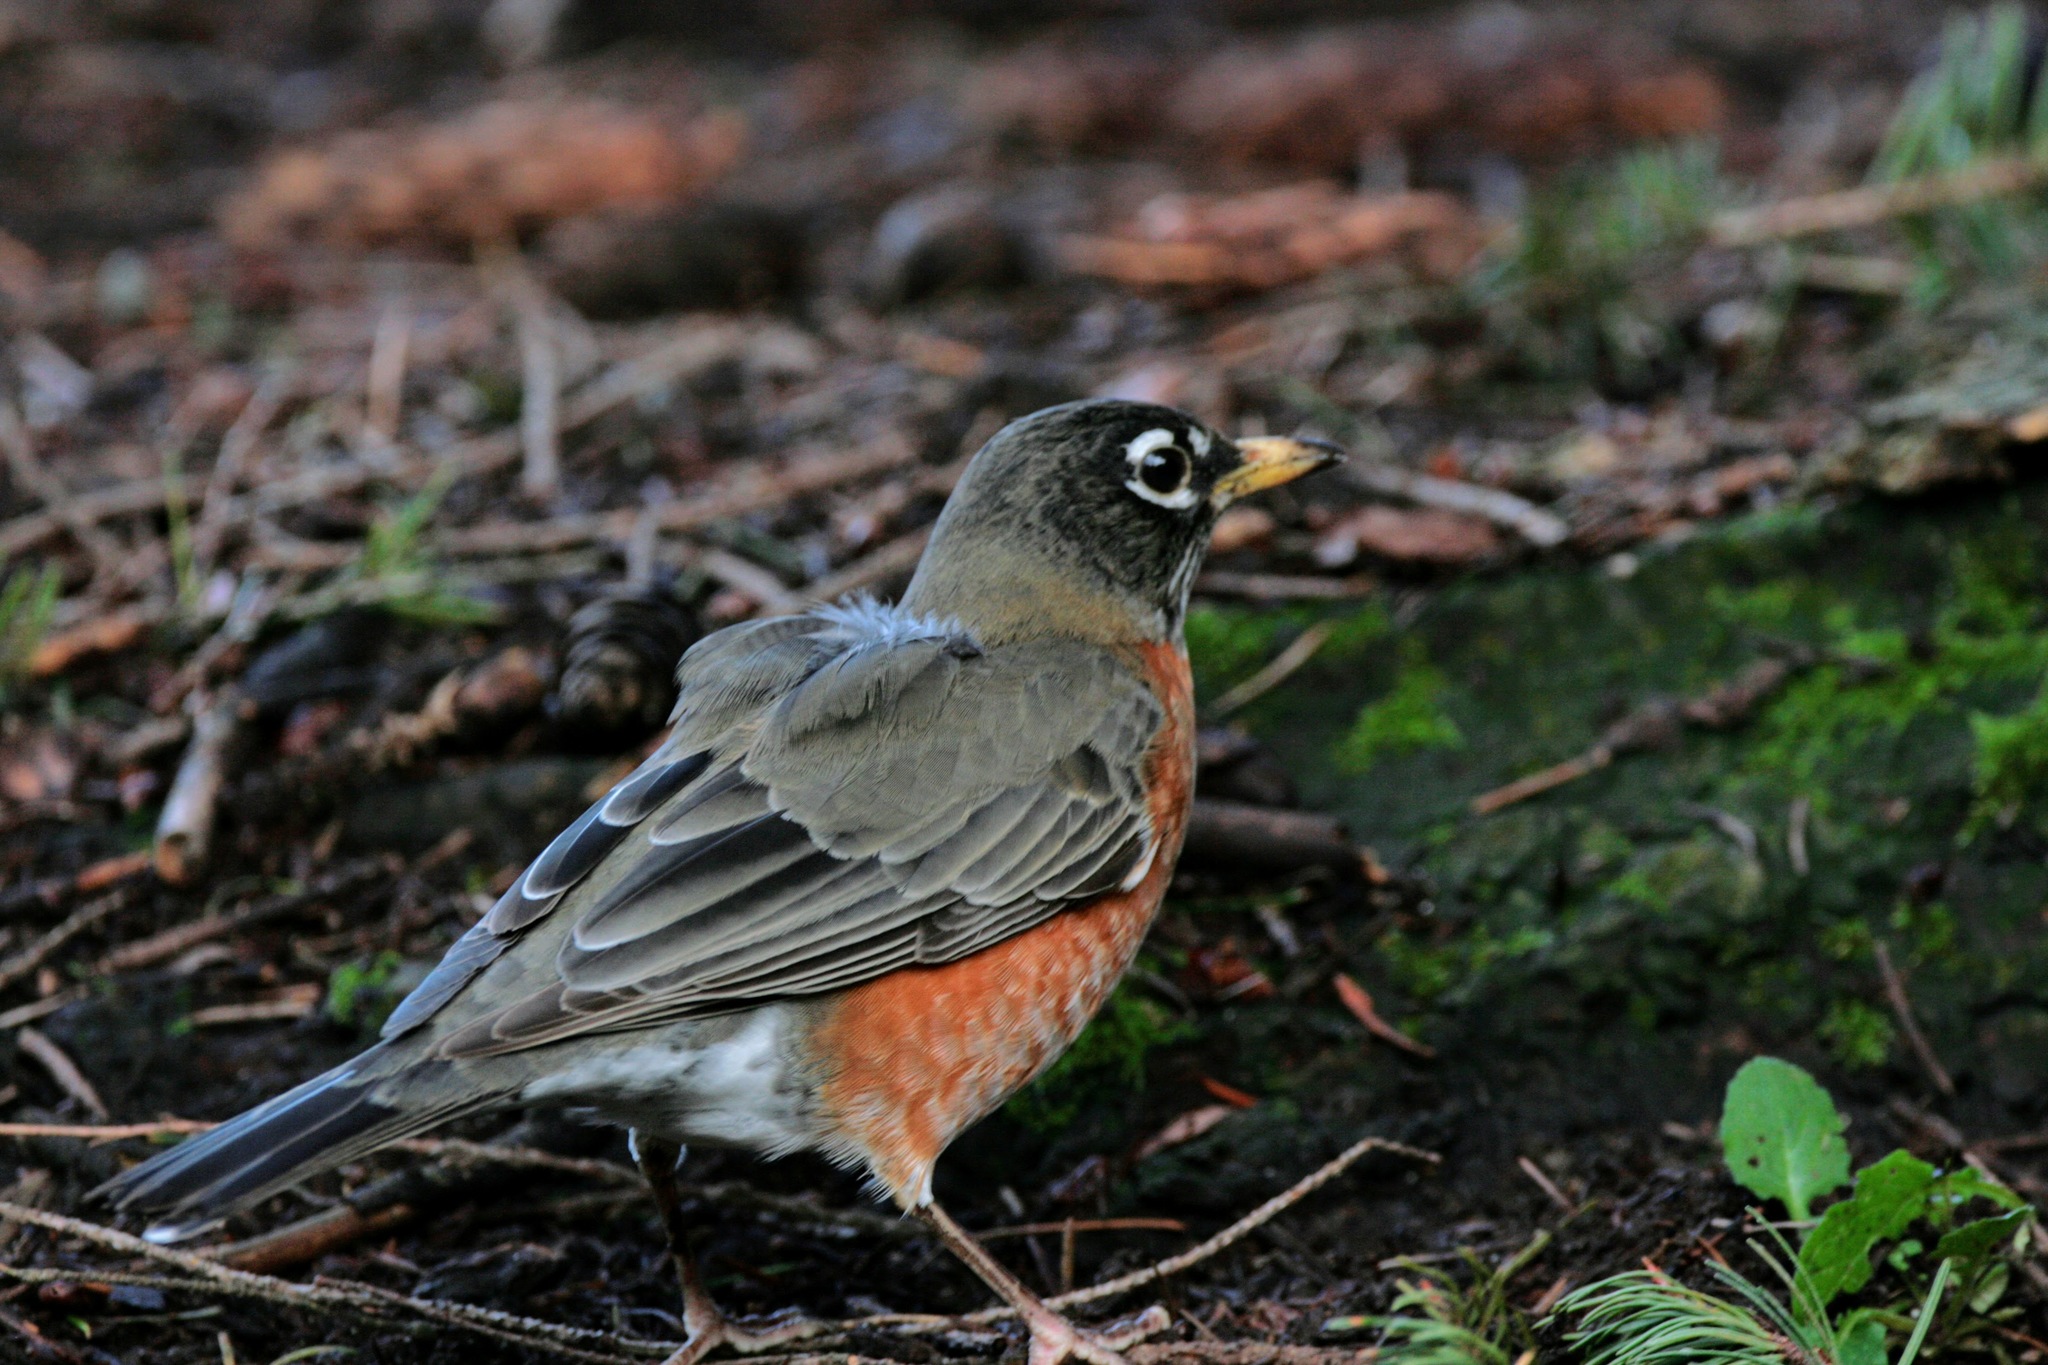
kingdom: Animalia
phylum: Chordata
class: Aves
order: Passeriformes
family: Turdidae
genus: Turdus
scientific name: Turdus migratorius
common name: American robin
